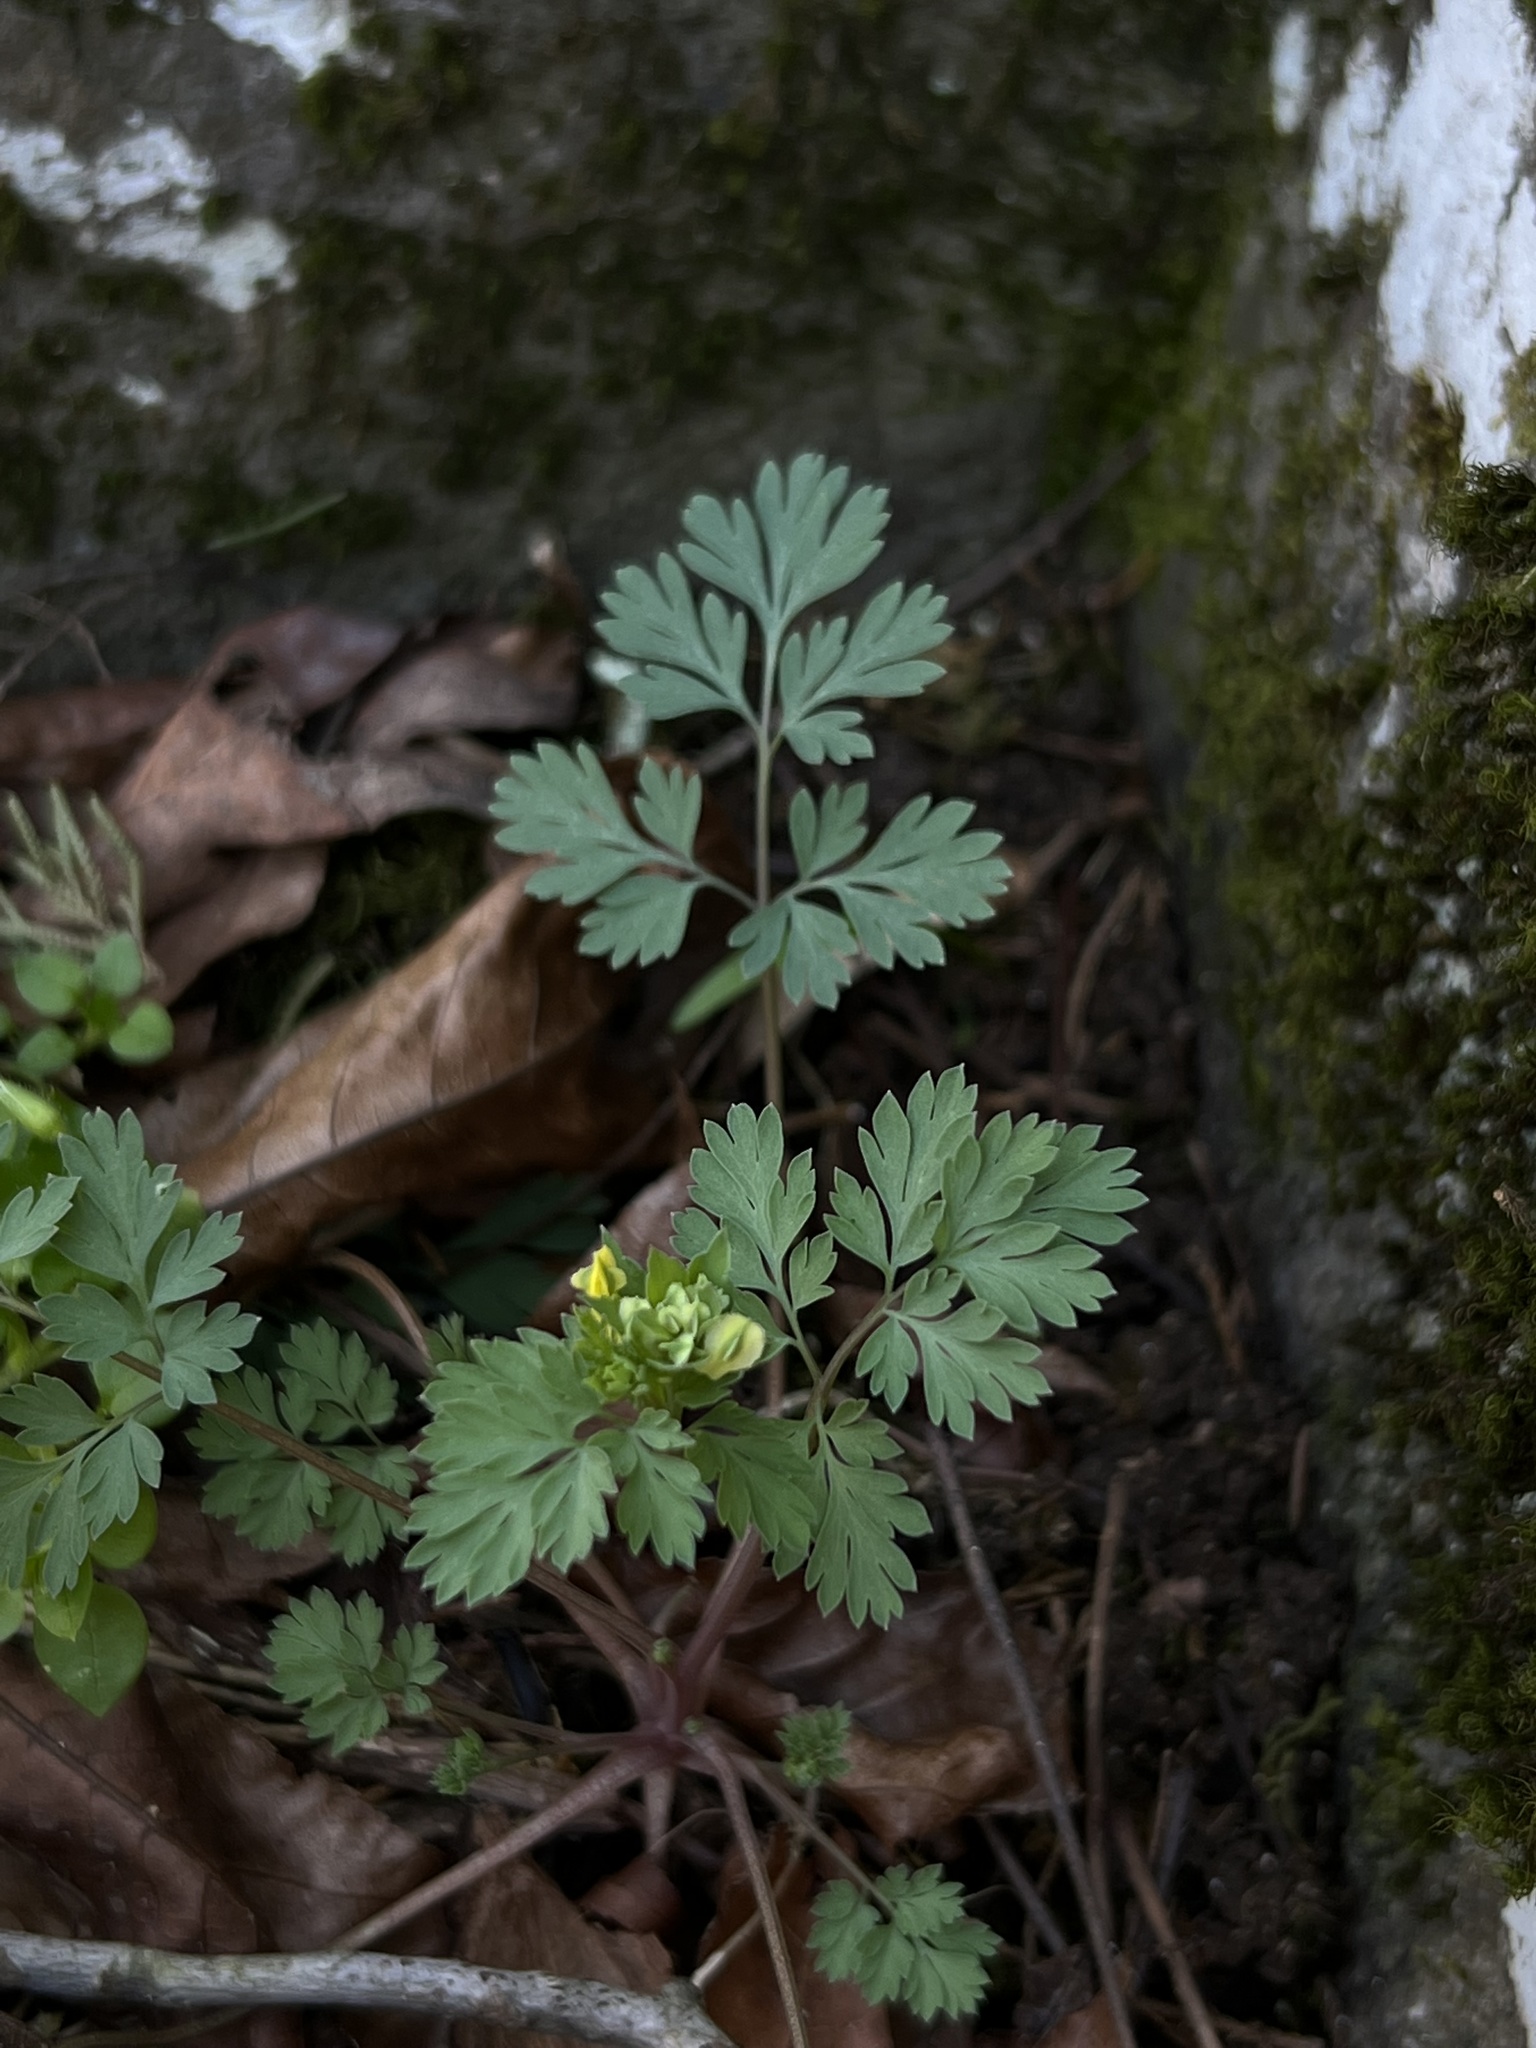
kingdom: Plantae
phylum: Tracheophyta
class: Magnoliopsida
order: Ranunculales
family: Papaveraceae
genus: Corydalis
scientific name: Corydalis flavula
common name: Yellow corydalis
